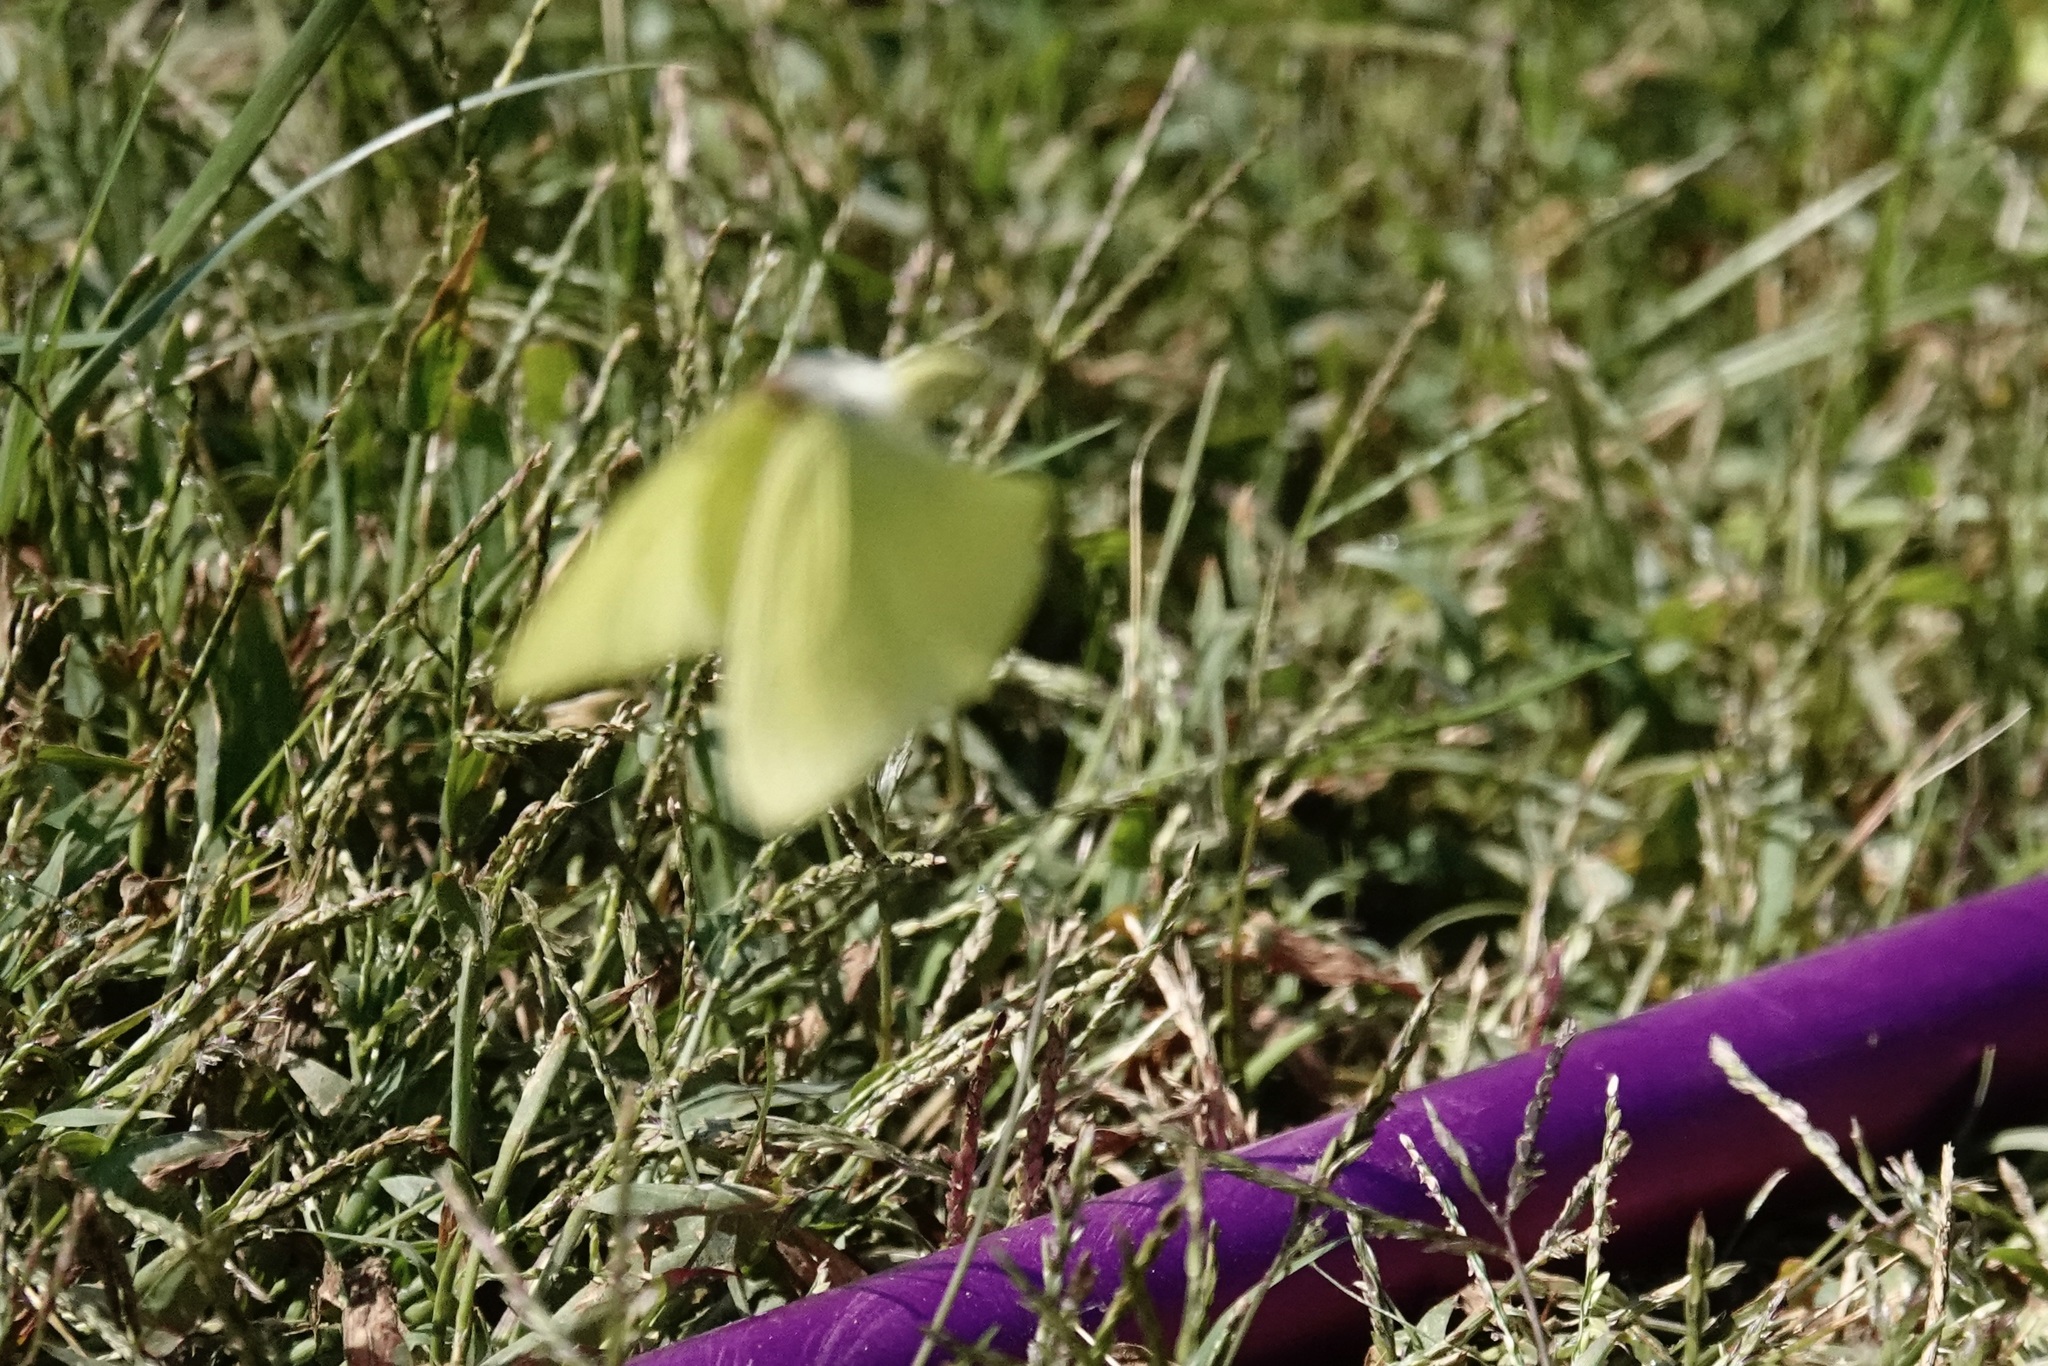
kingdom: Animalia
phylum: Arthropoda
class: Insecta
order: Lepidoptera
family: Pieridae
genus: Phoebis
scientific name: Phoebis sennae
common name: Cloudless sulphur
